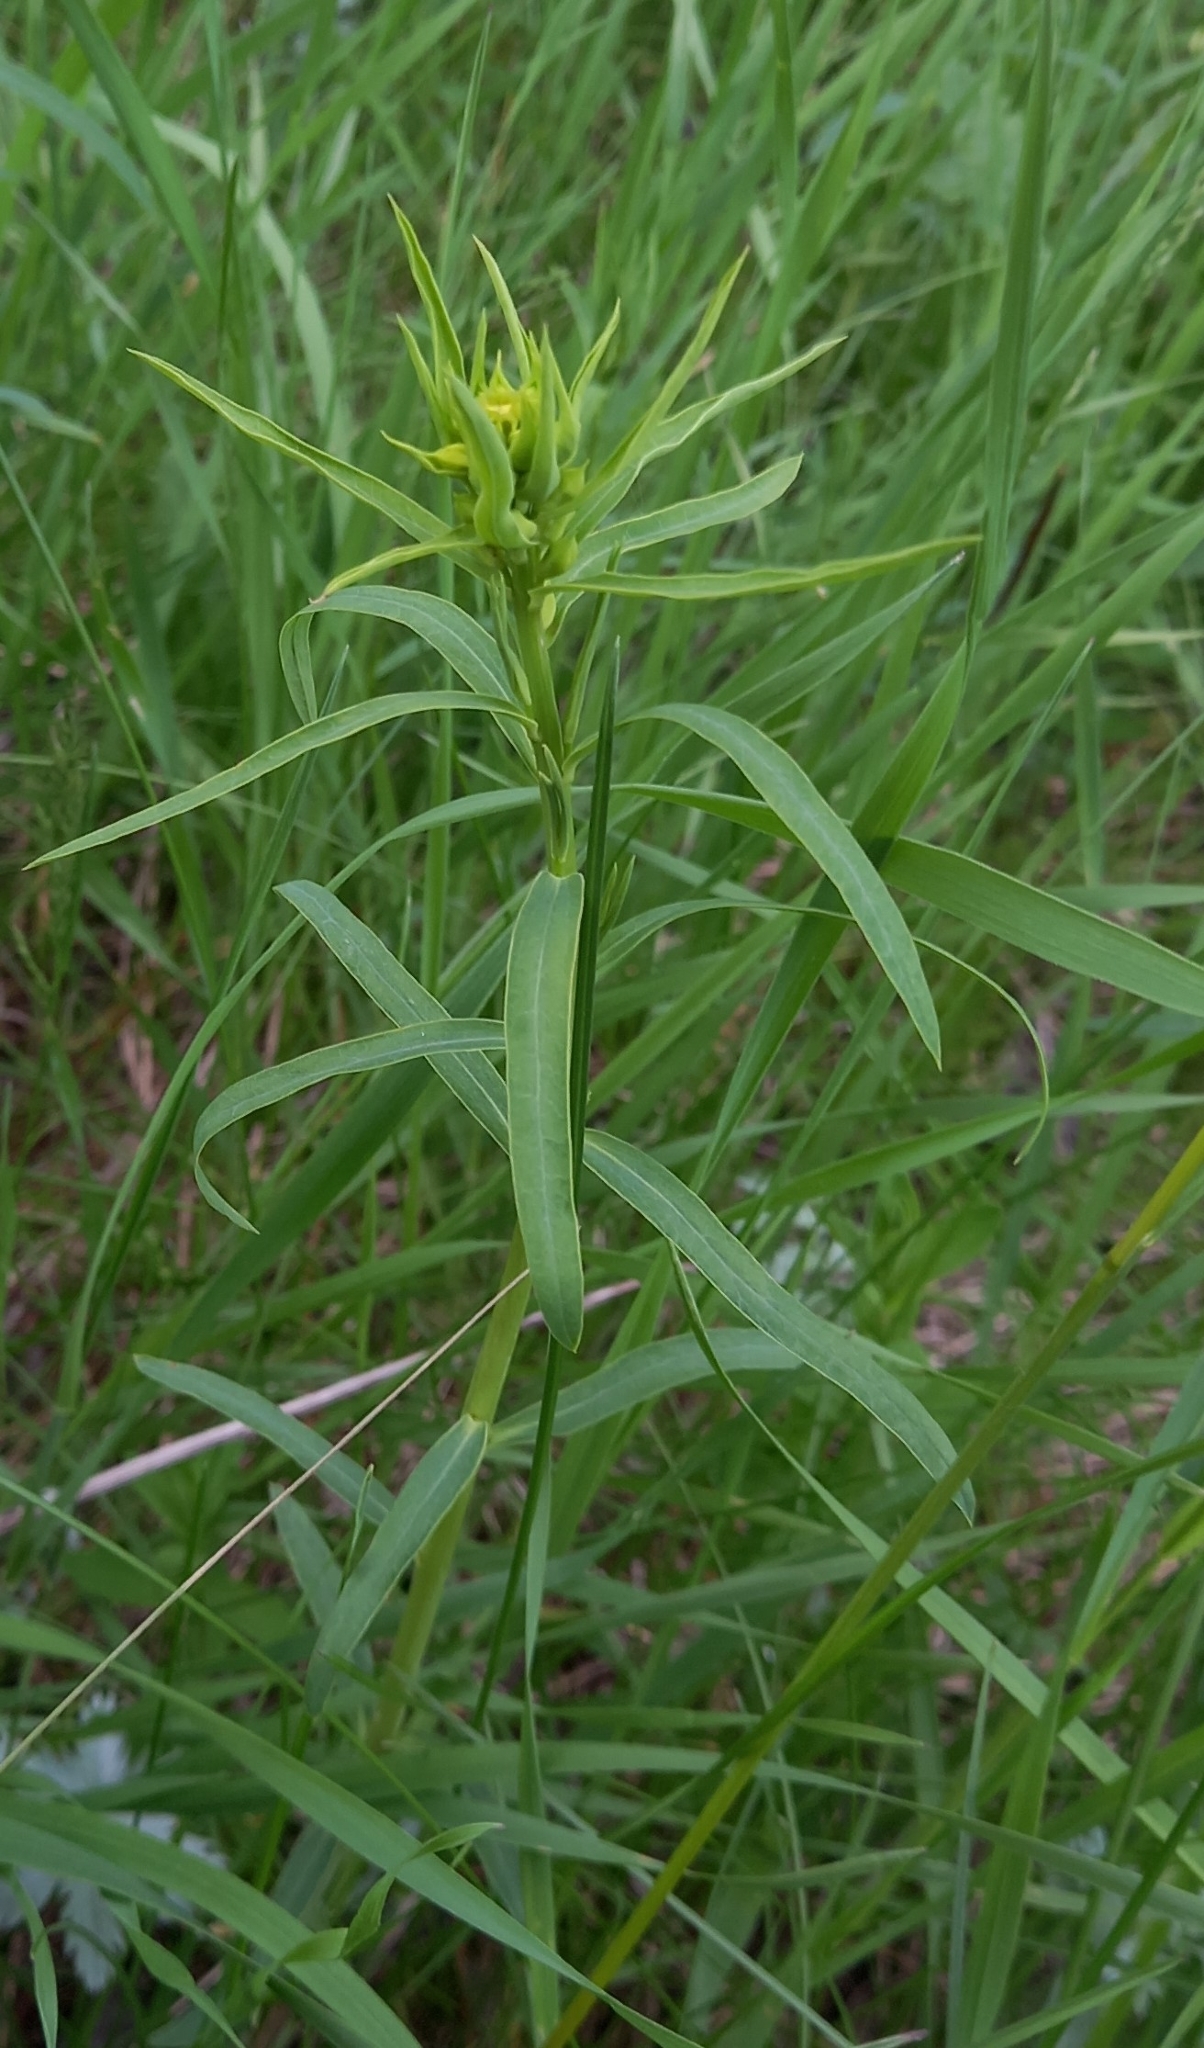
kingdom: Plantae
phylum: Tracheophyta
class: Magnoliopsida
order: Malpighiales
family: Euphorbiaceae
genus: Euphorbia
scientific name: Euphorbia virgata
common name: Leafy spurge
